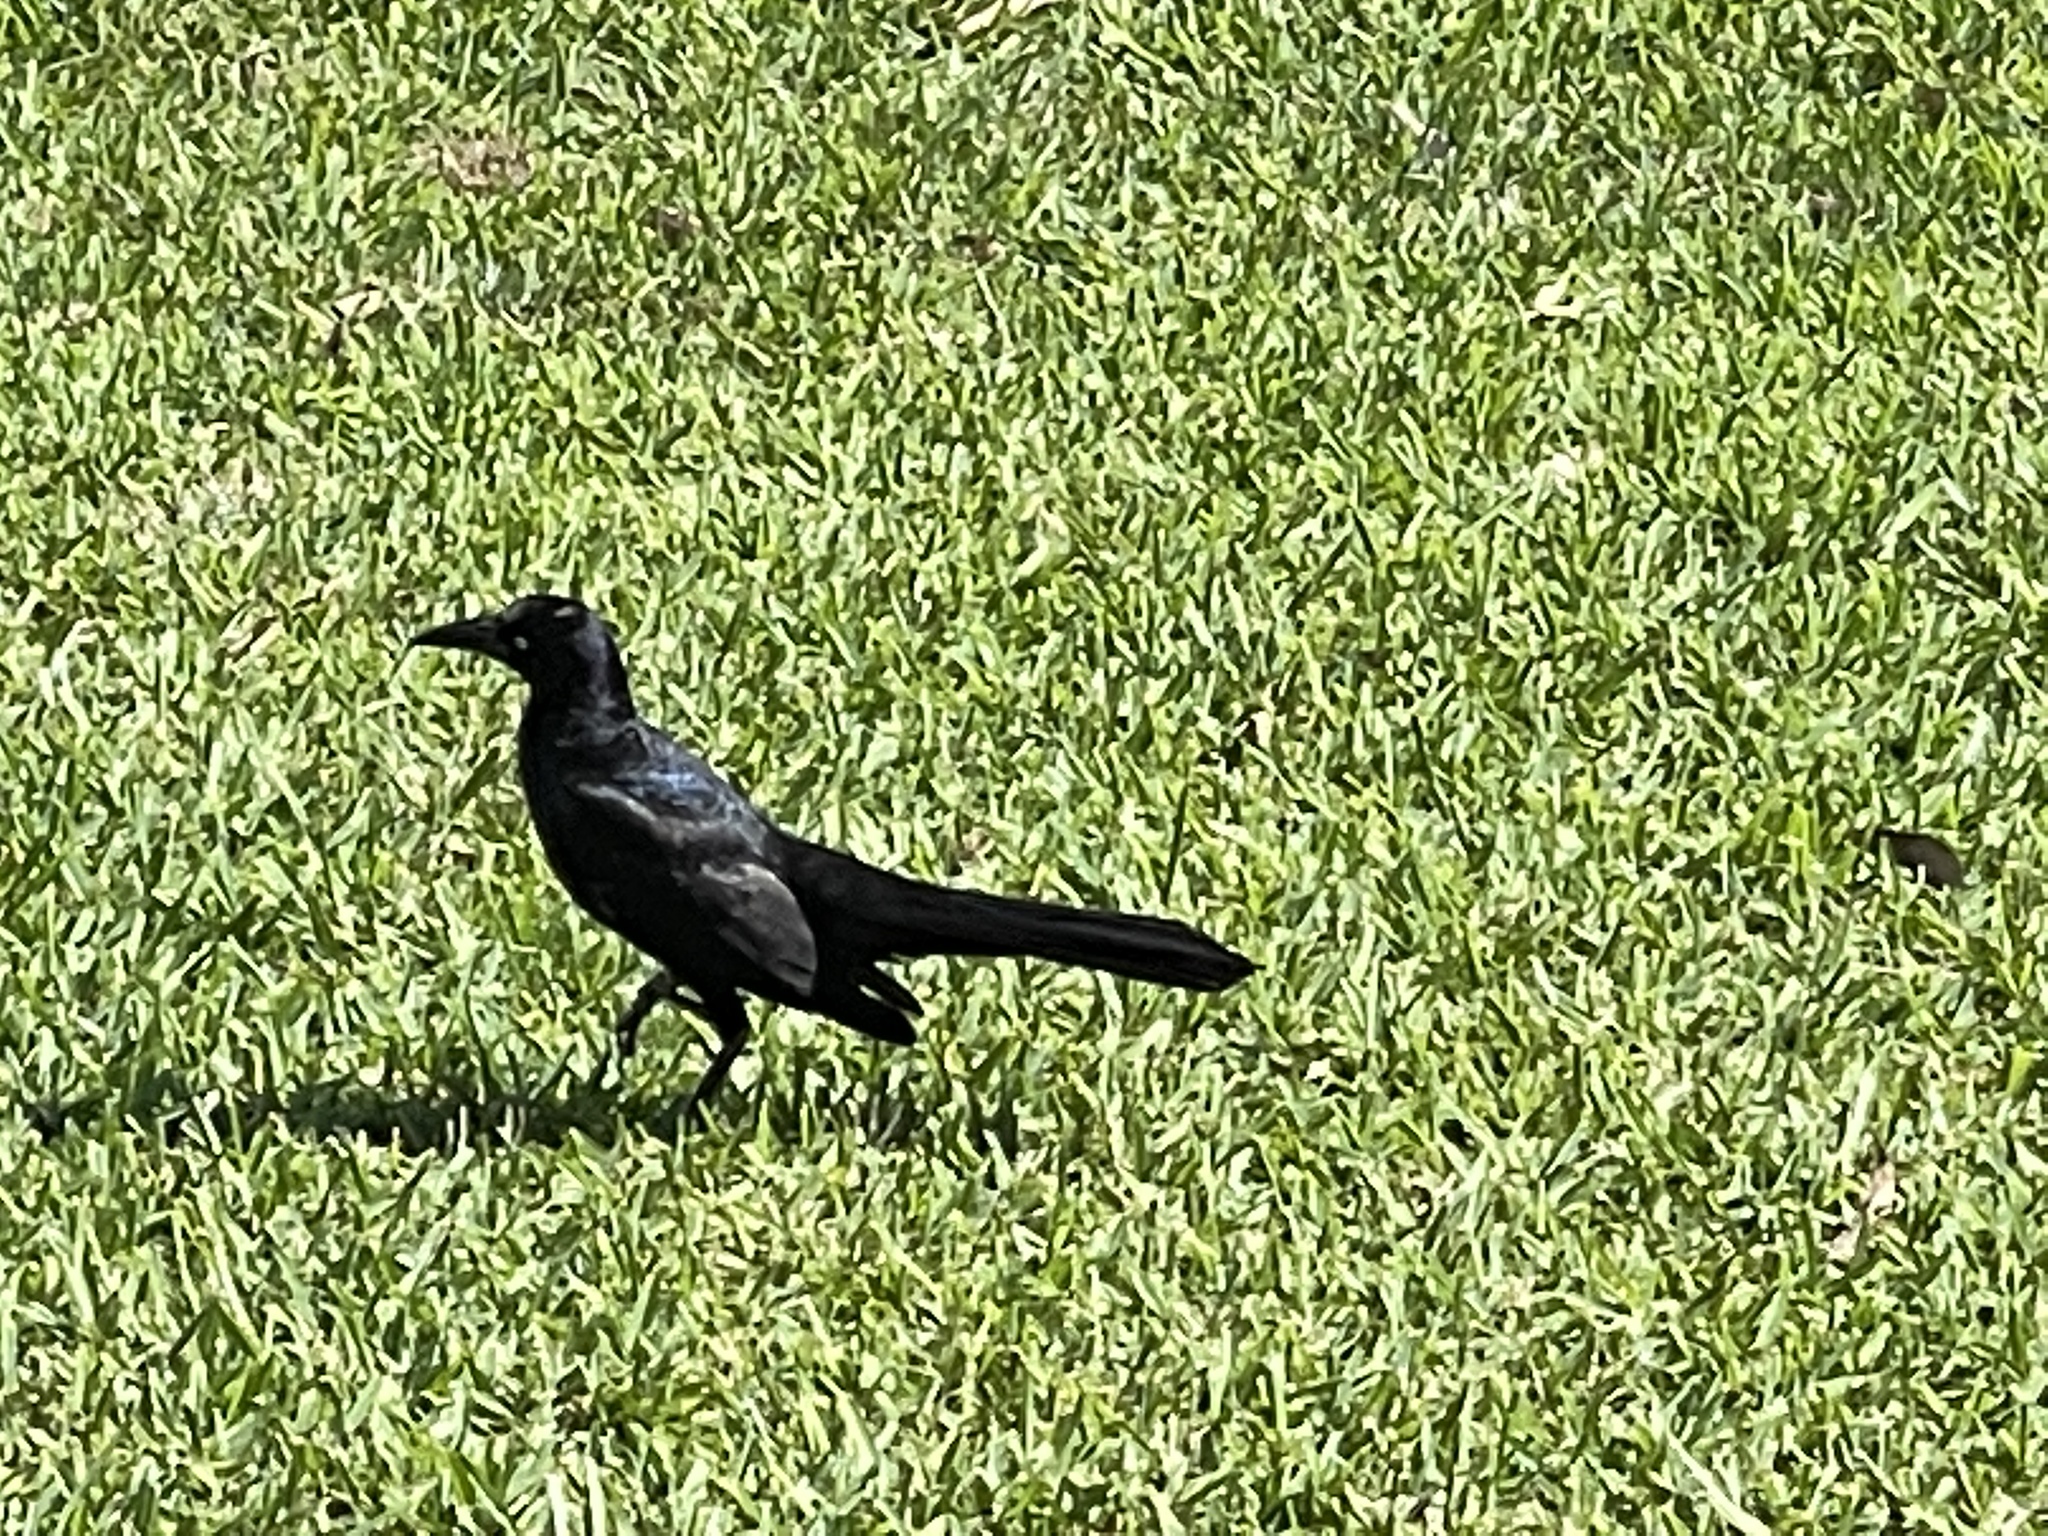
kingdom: Animalia
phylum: Chordata
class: Aves
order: Passeriformes
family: Icteridae
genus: Quiscalus
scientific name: Quiscalus mexicanus
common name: Great-tailed grackle
